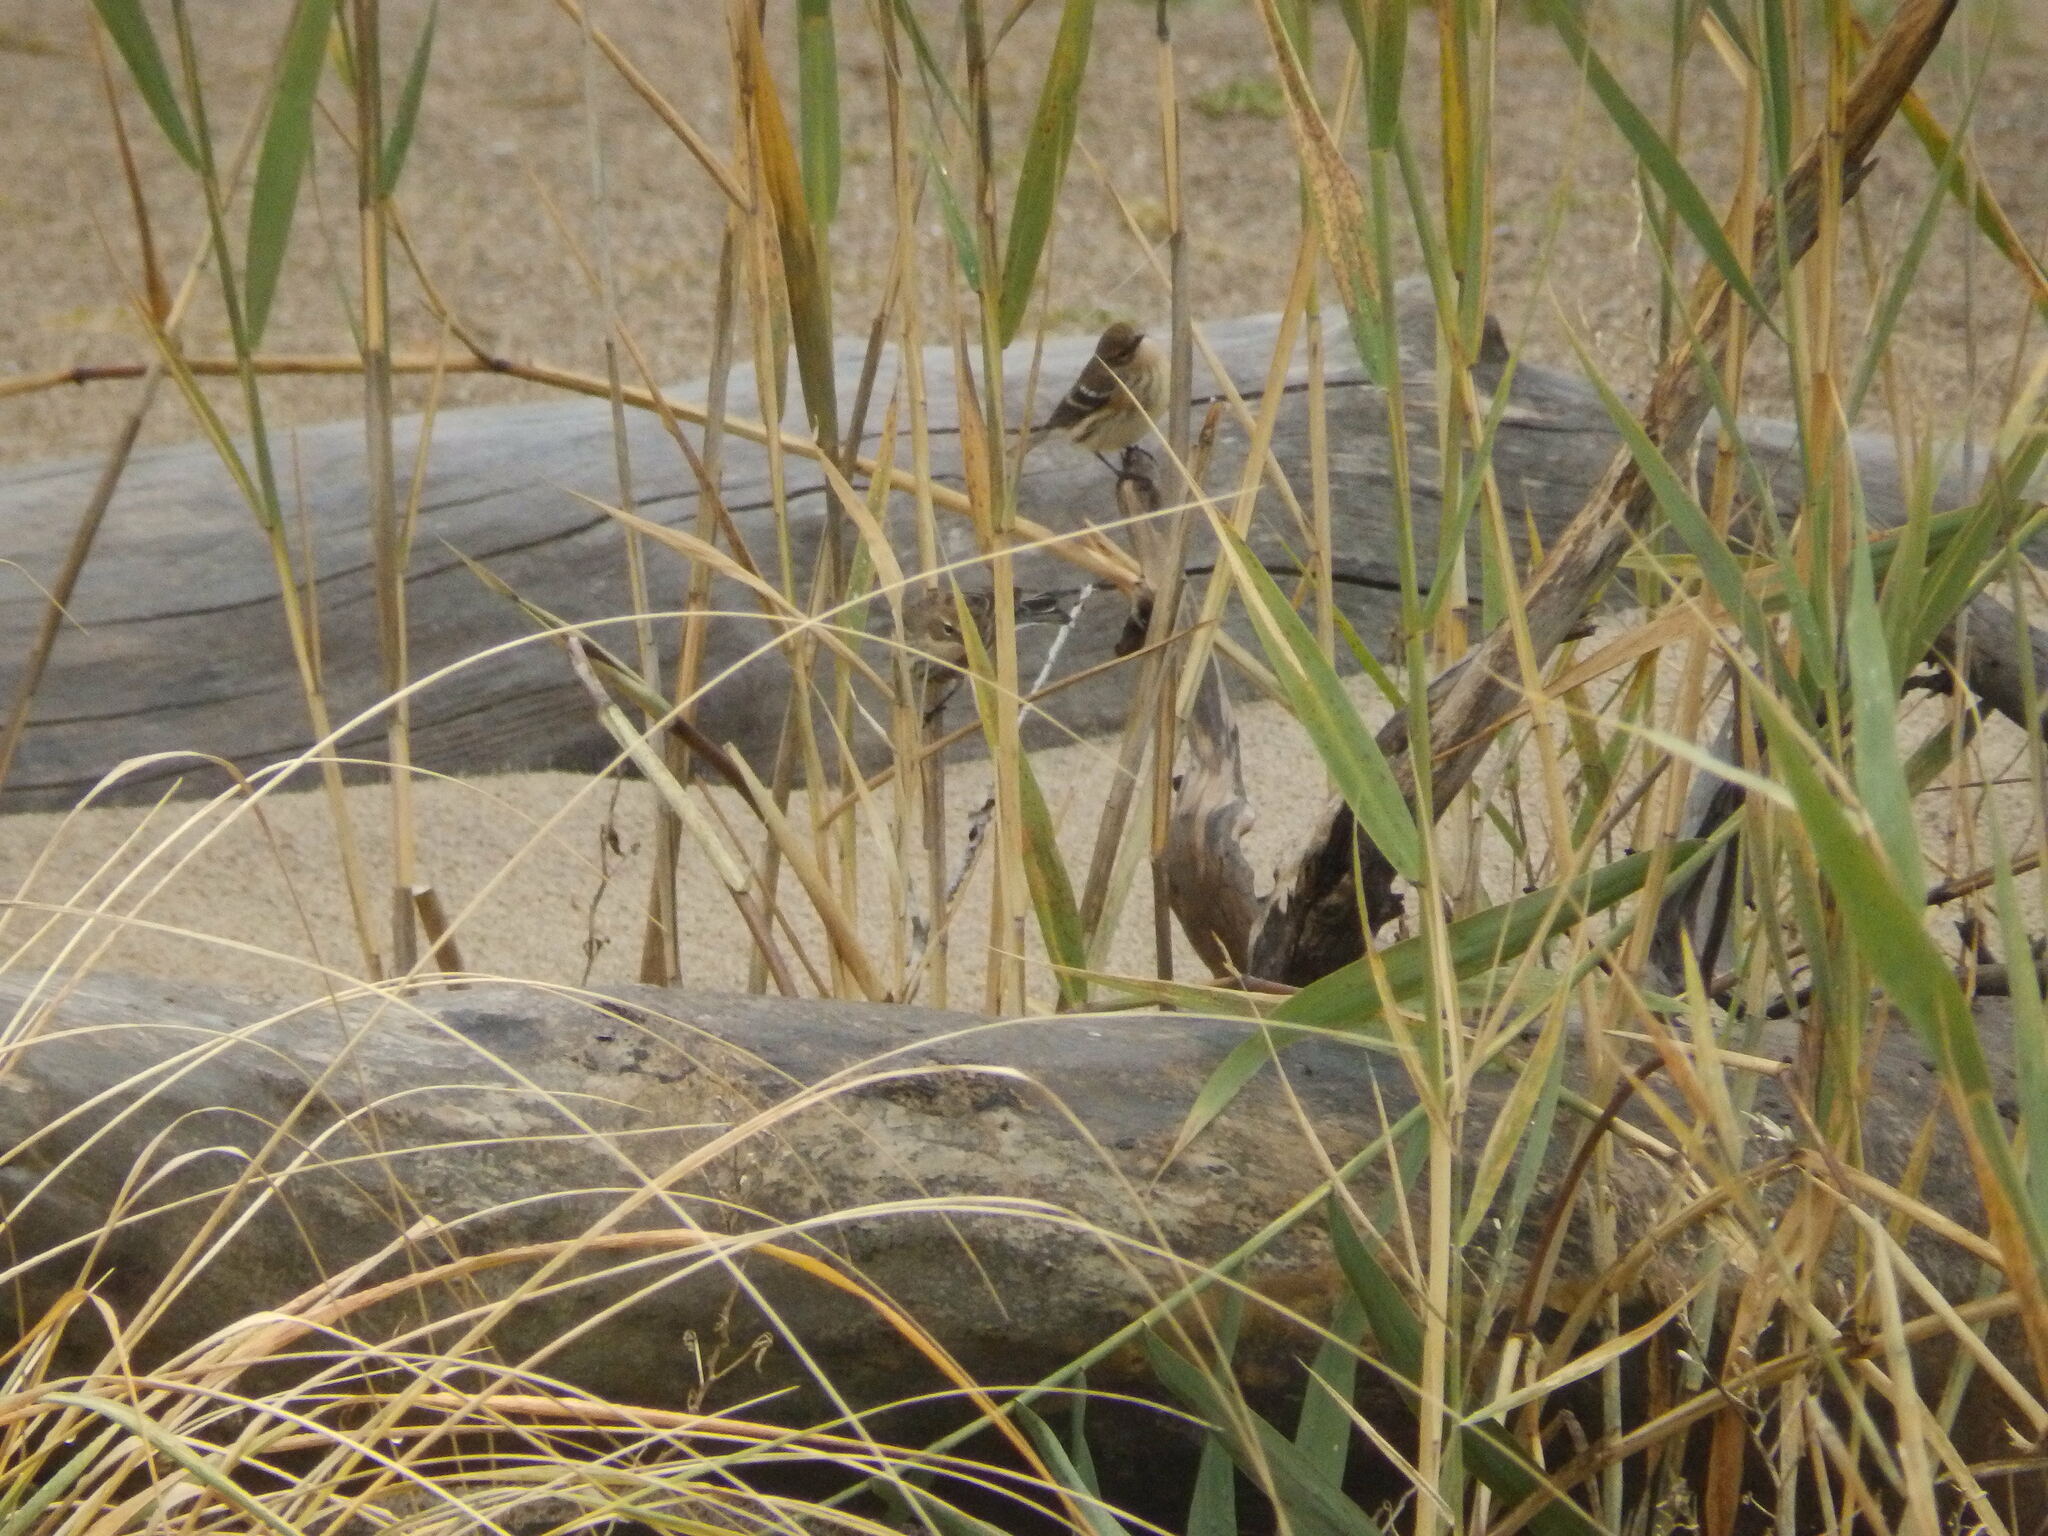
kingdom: Animalia
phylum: Chordata
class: Aves
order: Passeriformes
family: Parulidae
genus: Setophaga
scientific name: Setophaga coronata
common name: Myrtle warbler
